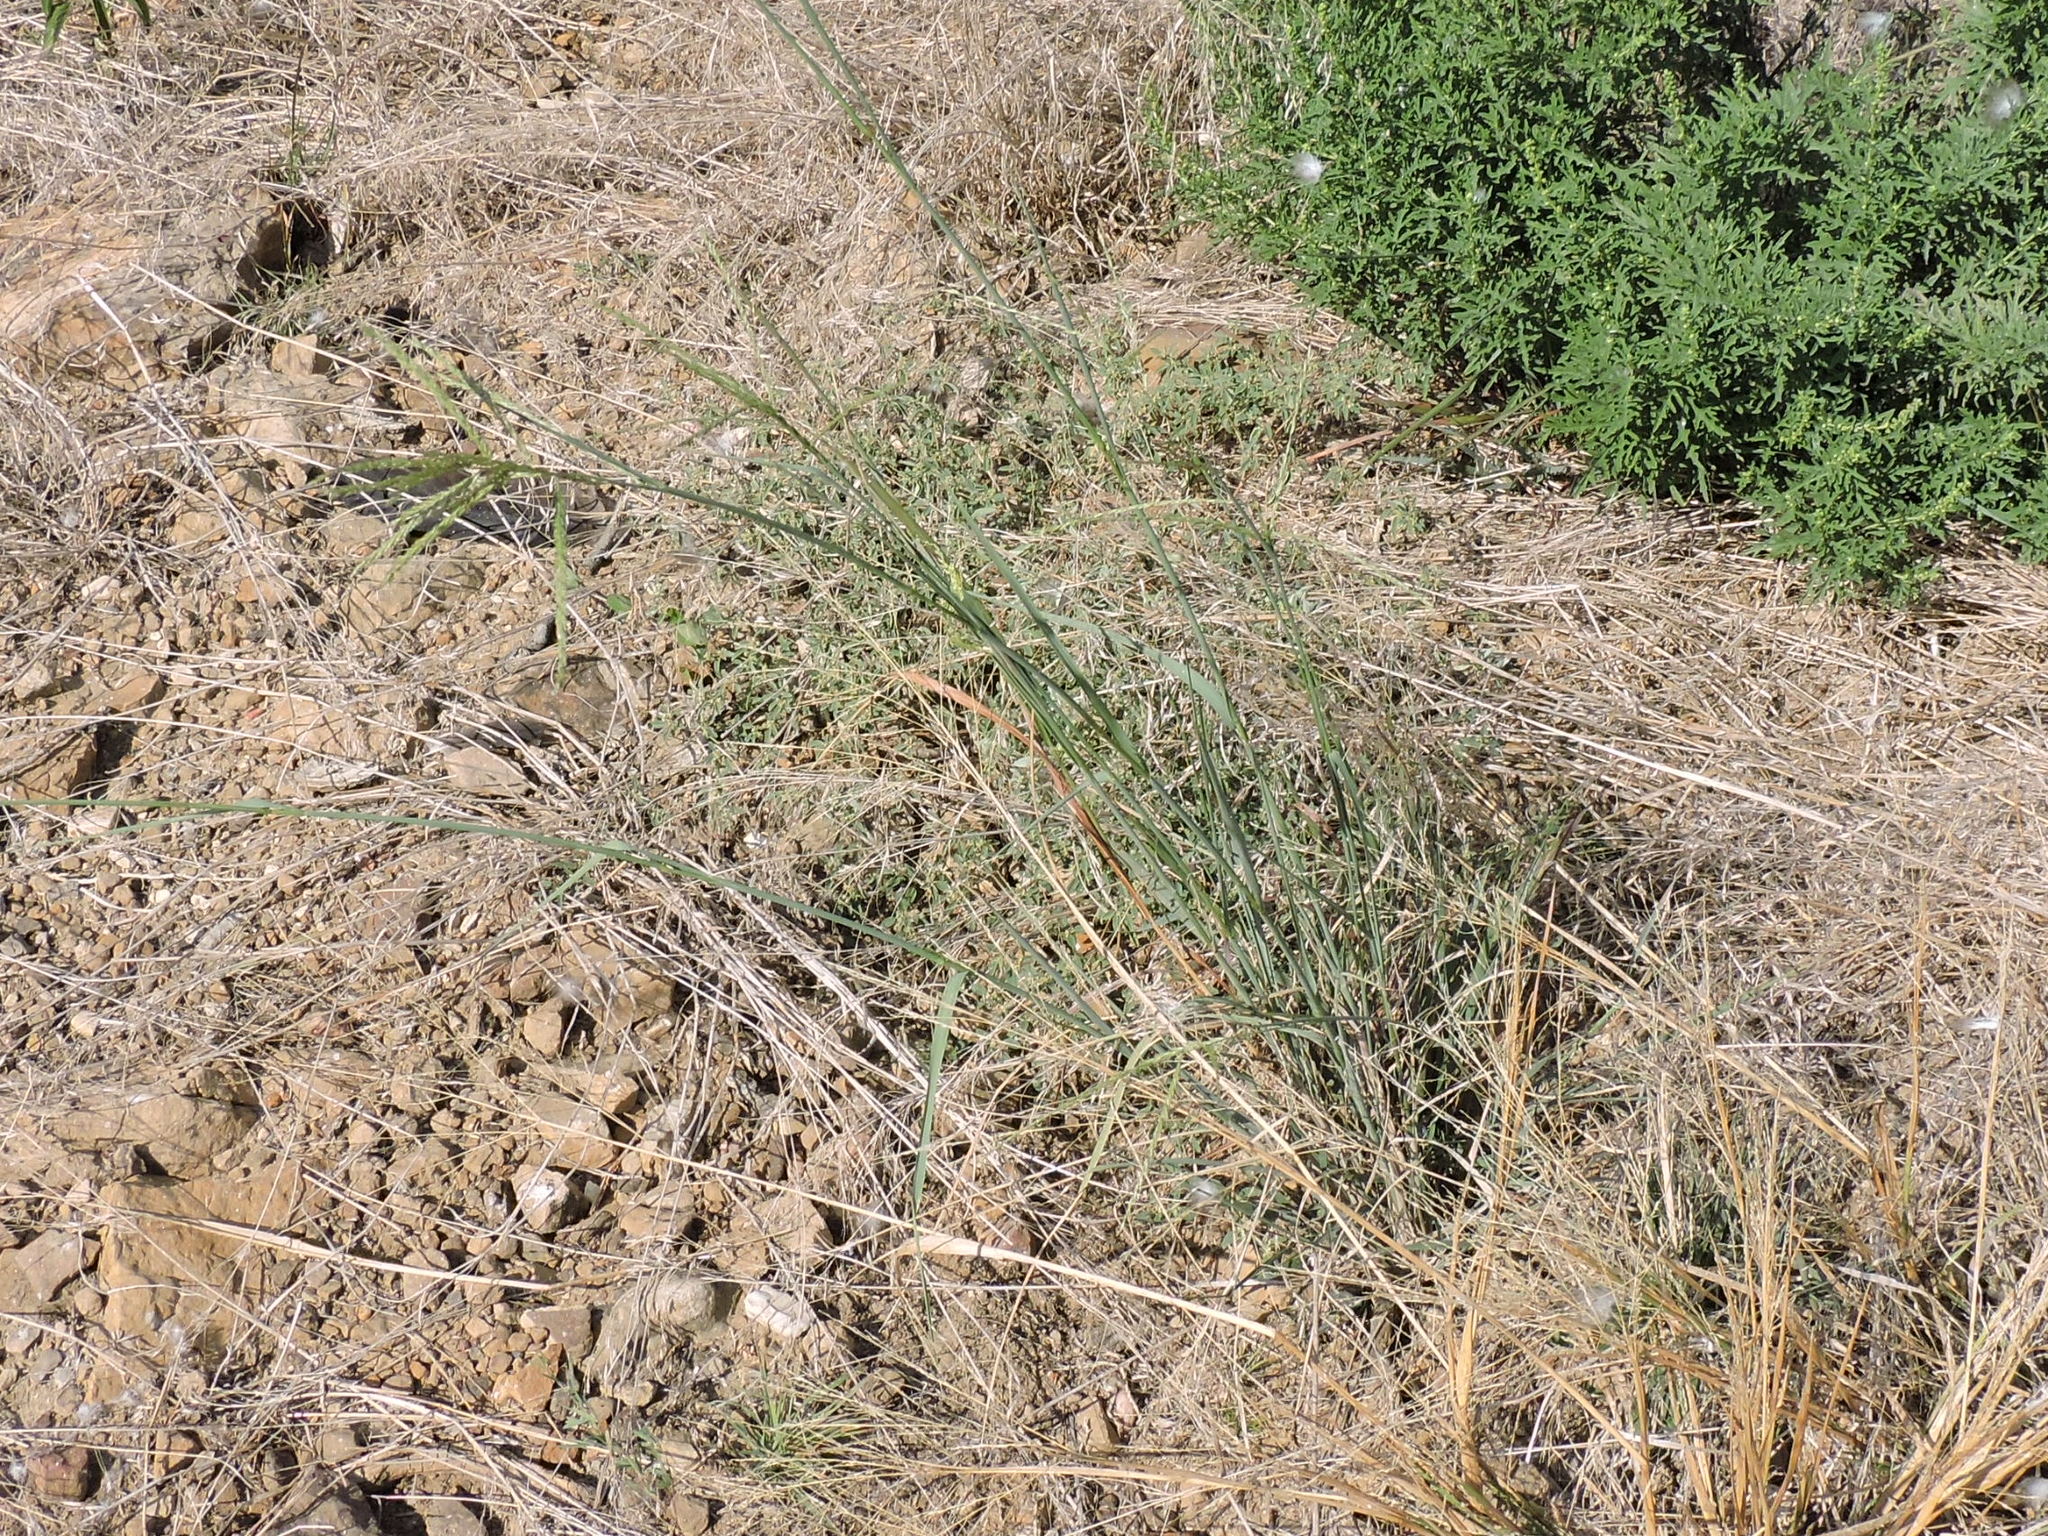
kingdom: Plantae
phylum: Tracheophyta
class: Liliopsida
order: Poales
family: Poaceae
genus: Disakisperma
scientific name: Disakisperma dubium
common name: Green sprangletop
